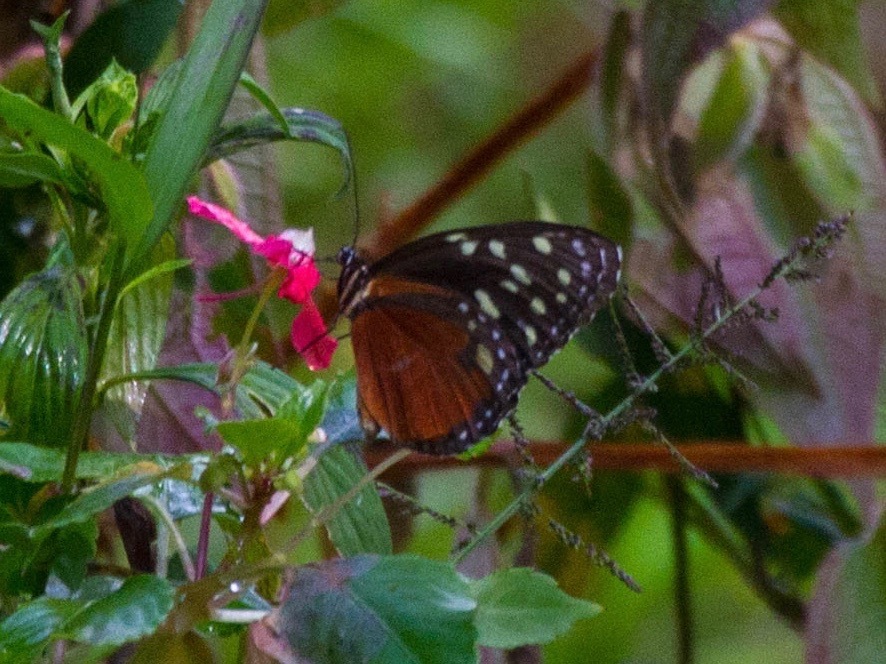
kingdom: Animalia
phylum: Arthropoda
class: Insecta
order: Lepidoptera
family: Nymphalidae
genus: Tithorea
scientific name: Tithorea tarricina
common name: Cream-spotted tigerwing
